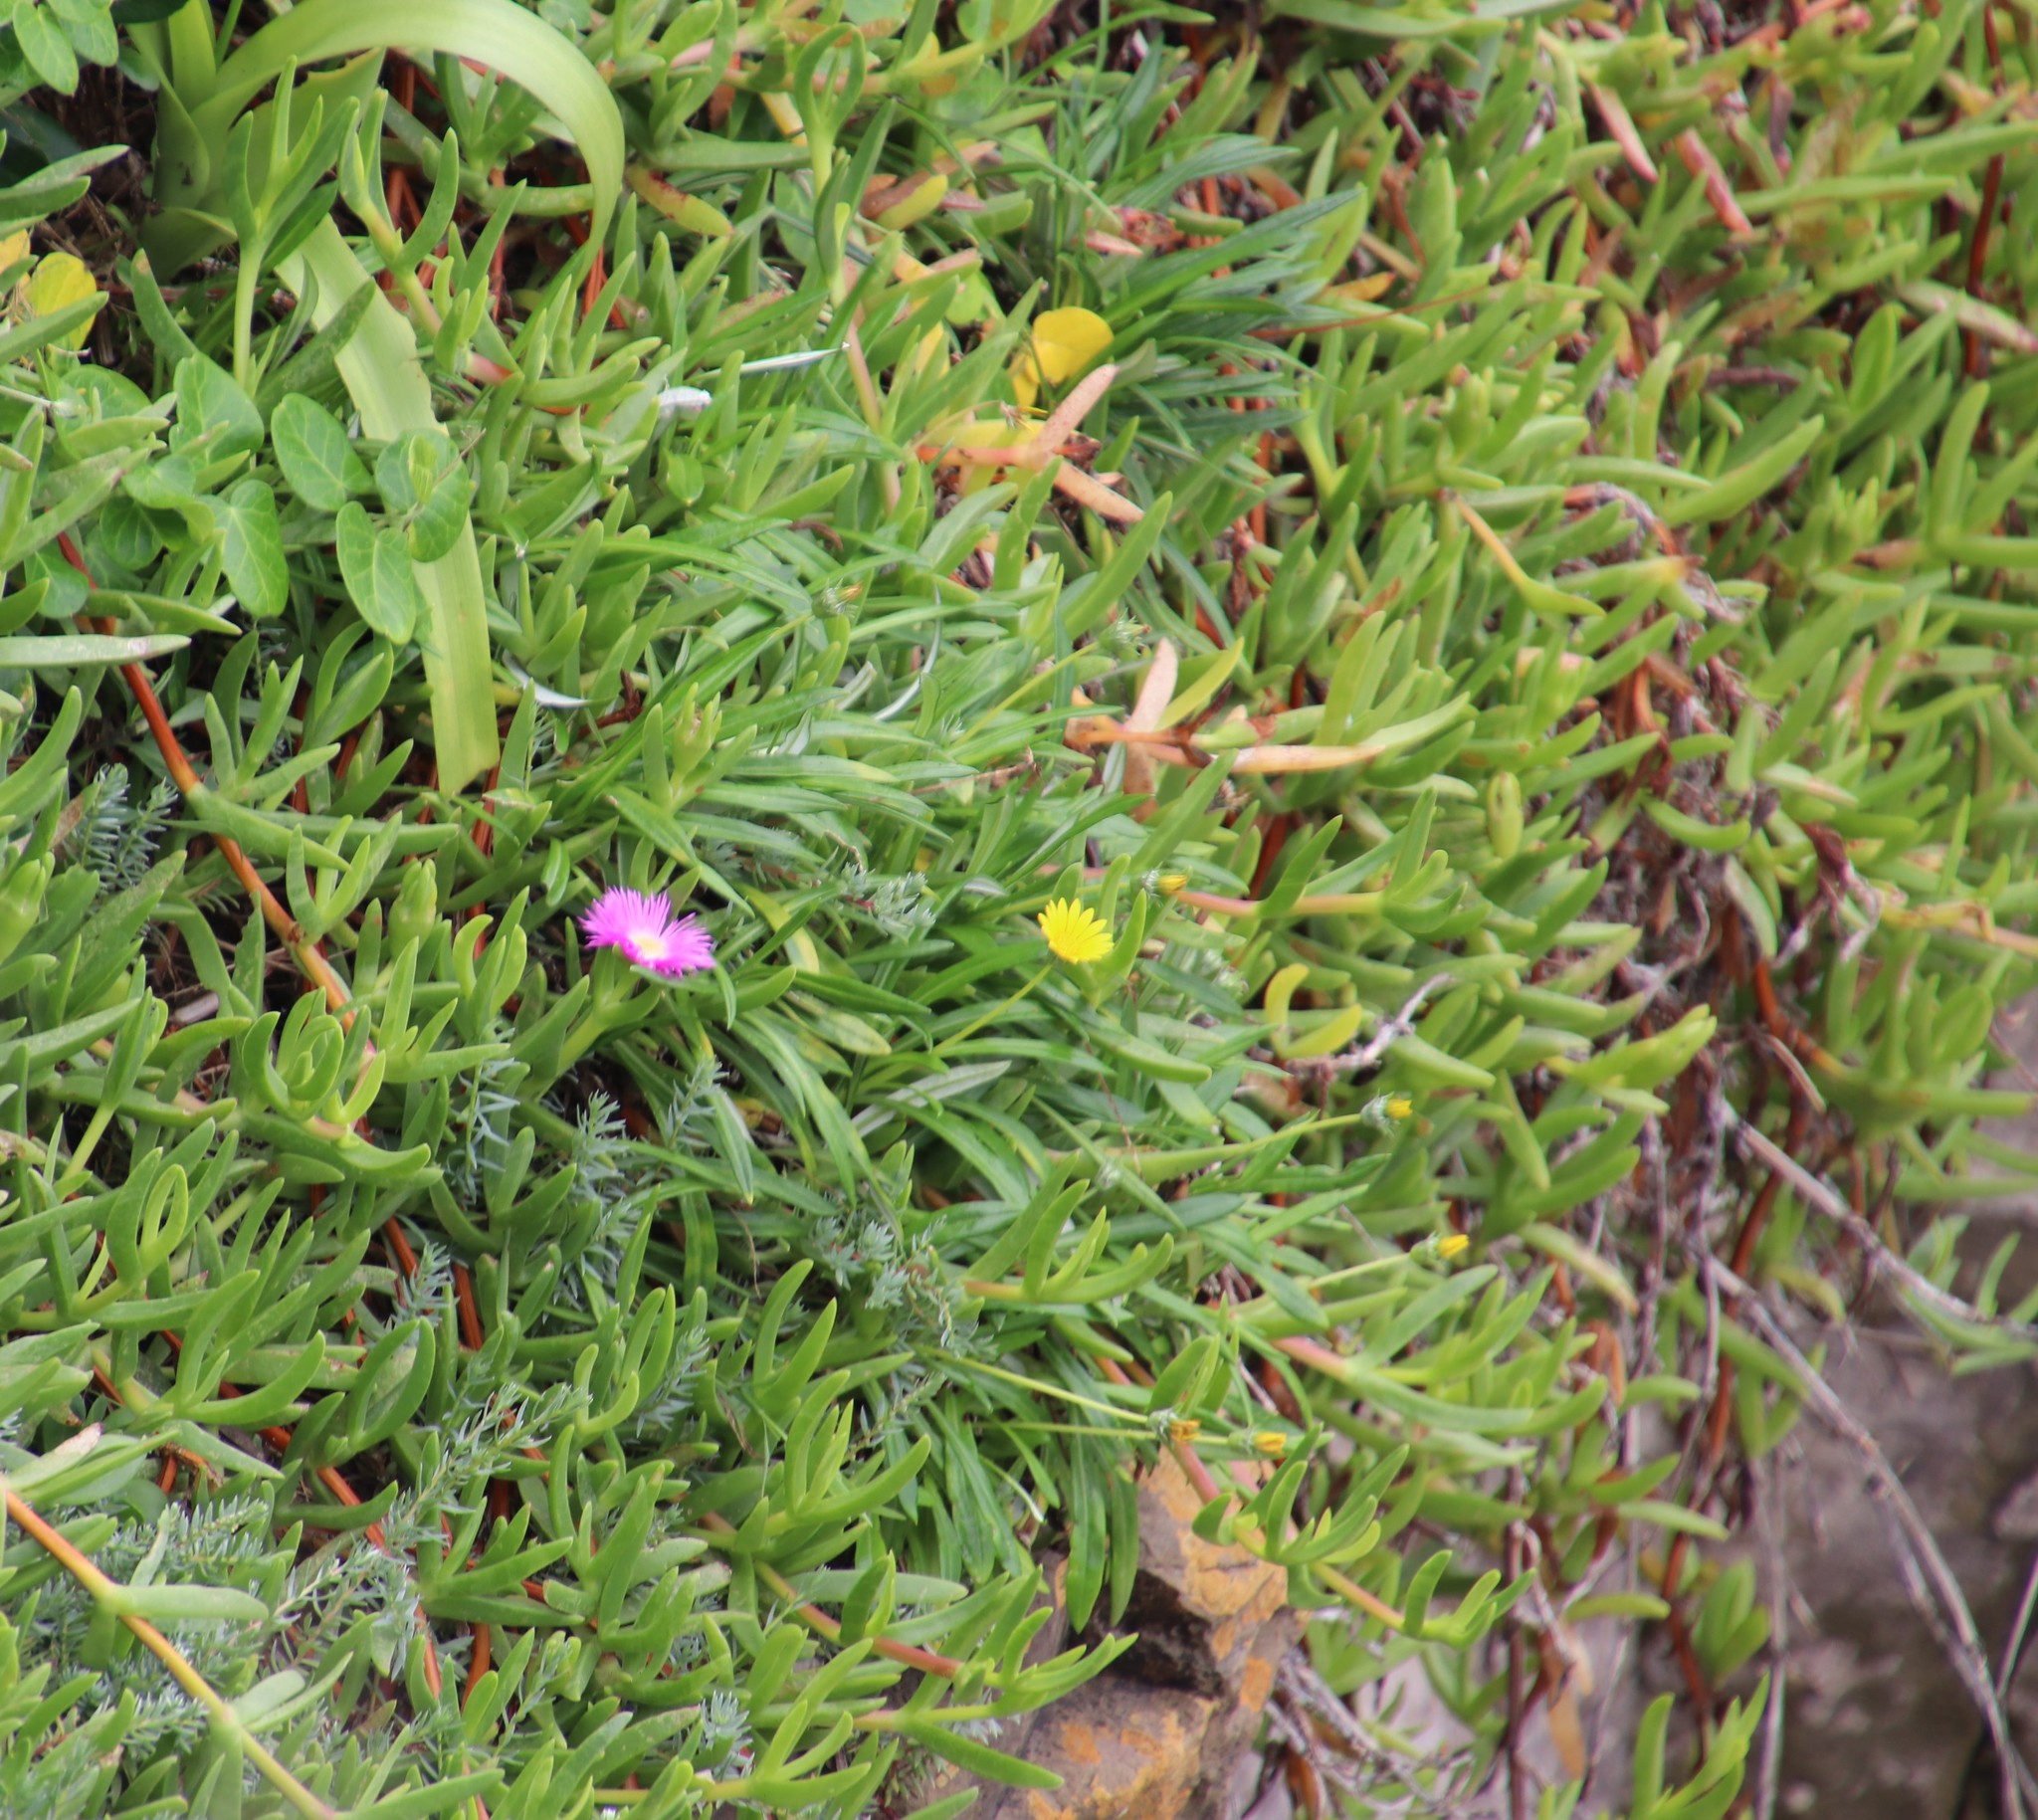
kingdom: Plantae
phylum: Tracheophyta
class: Magnoliopsida
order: Caryophyllales
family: Aizoaceae
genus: Carpobrotus
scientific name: Carpobrotus dimidiatus
